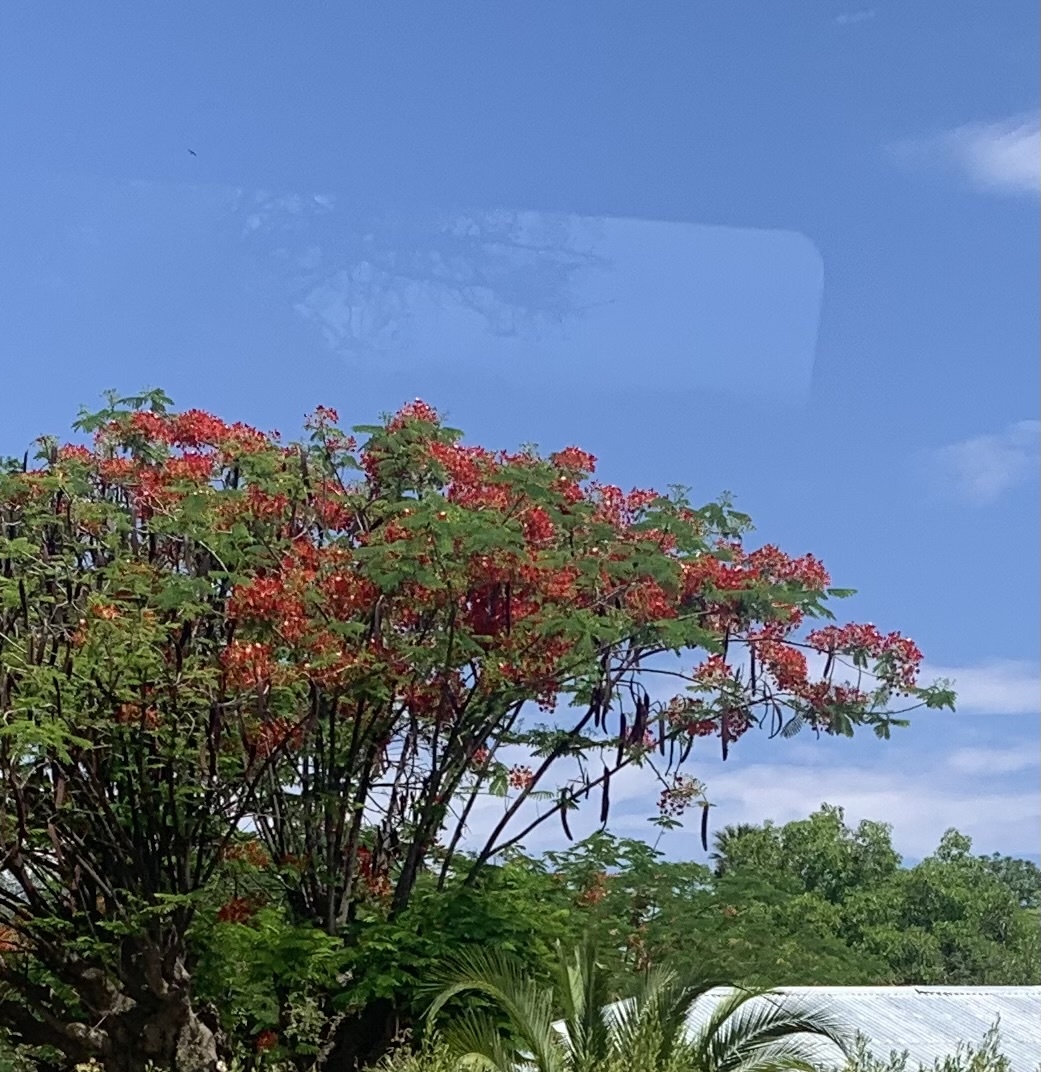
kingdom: Plantae
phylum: Tracheophyta
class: Magnoliopsida
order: Fabales
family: Fabaceae
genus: Delonix
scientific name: Delonix regia
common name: Royal poinciana
